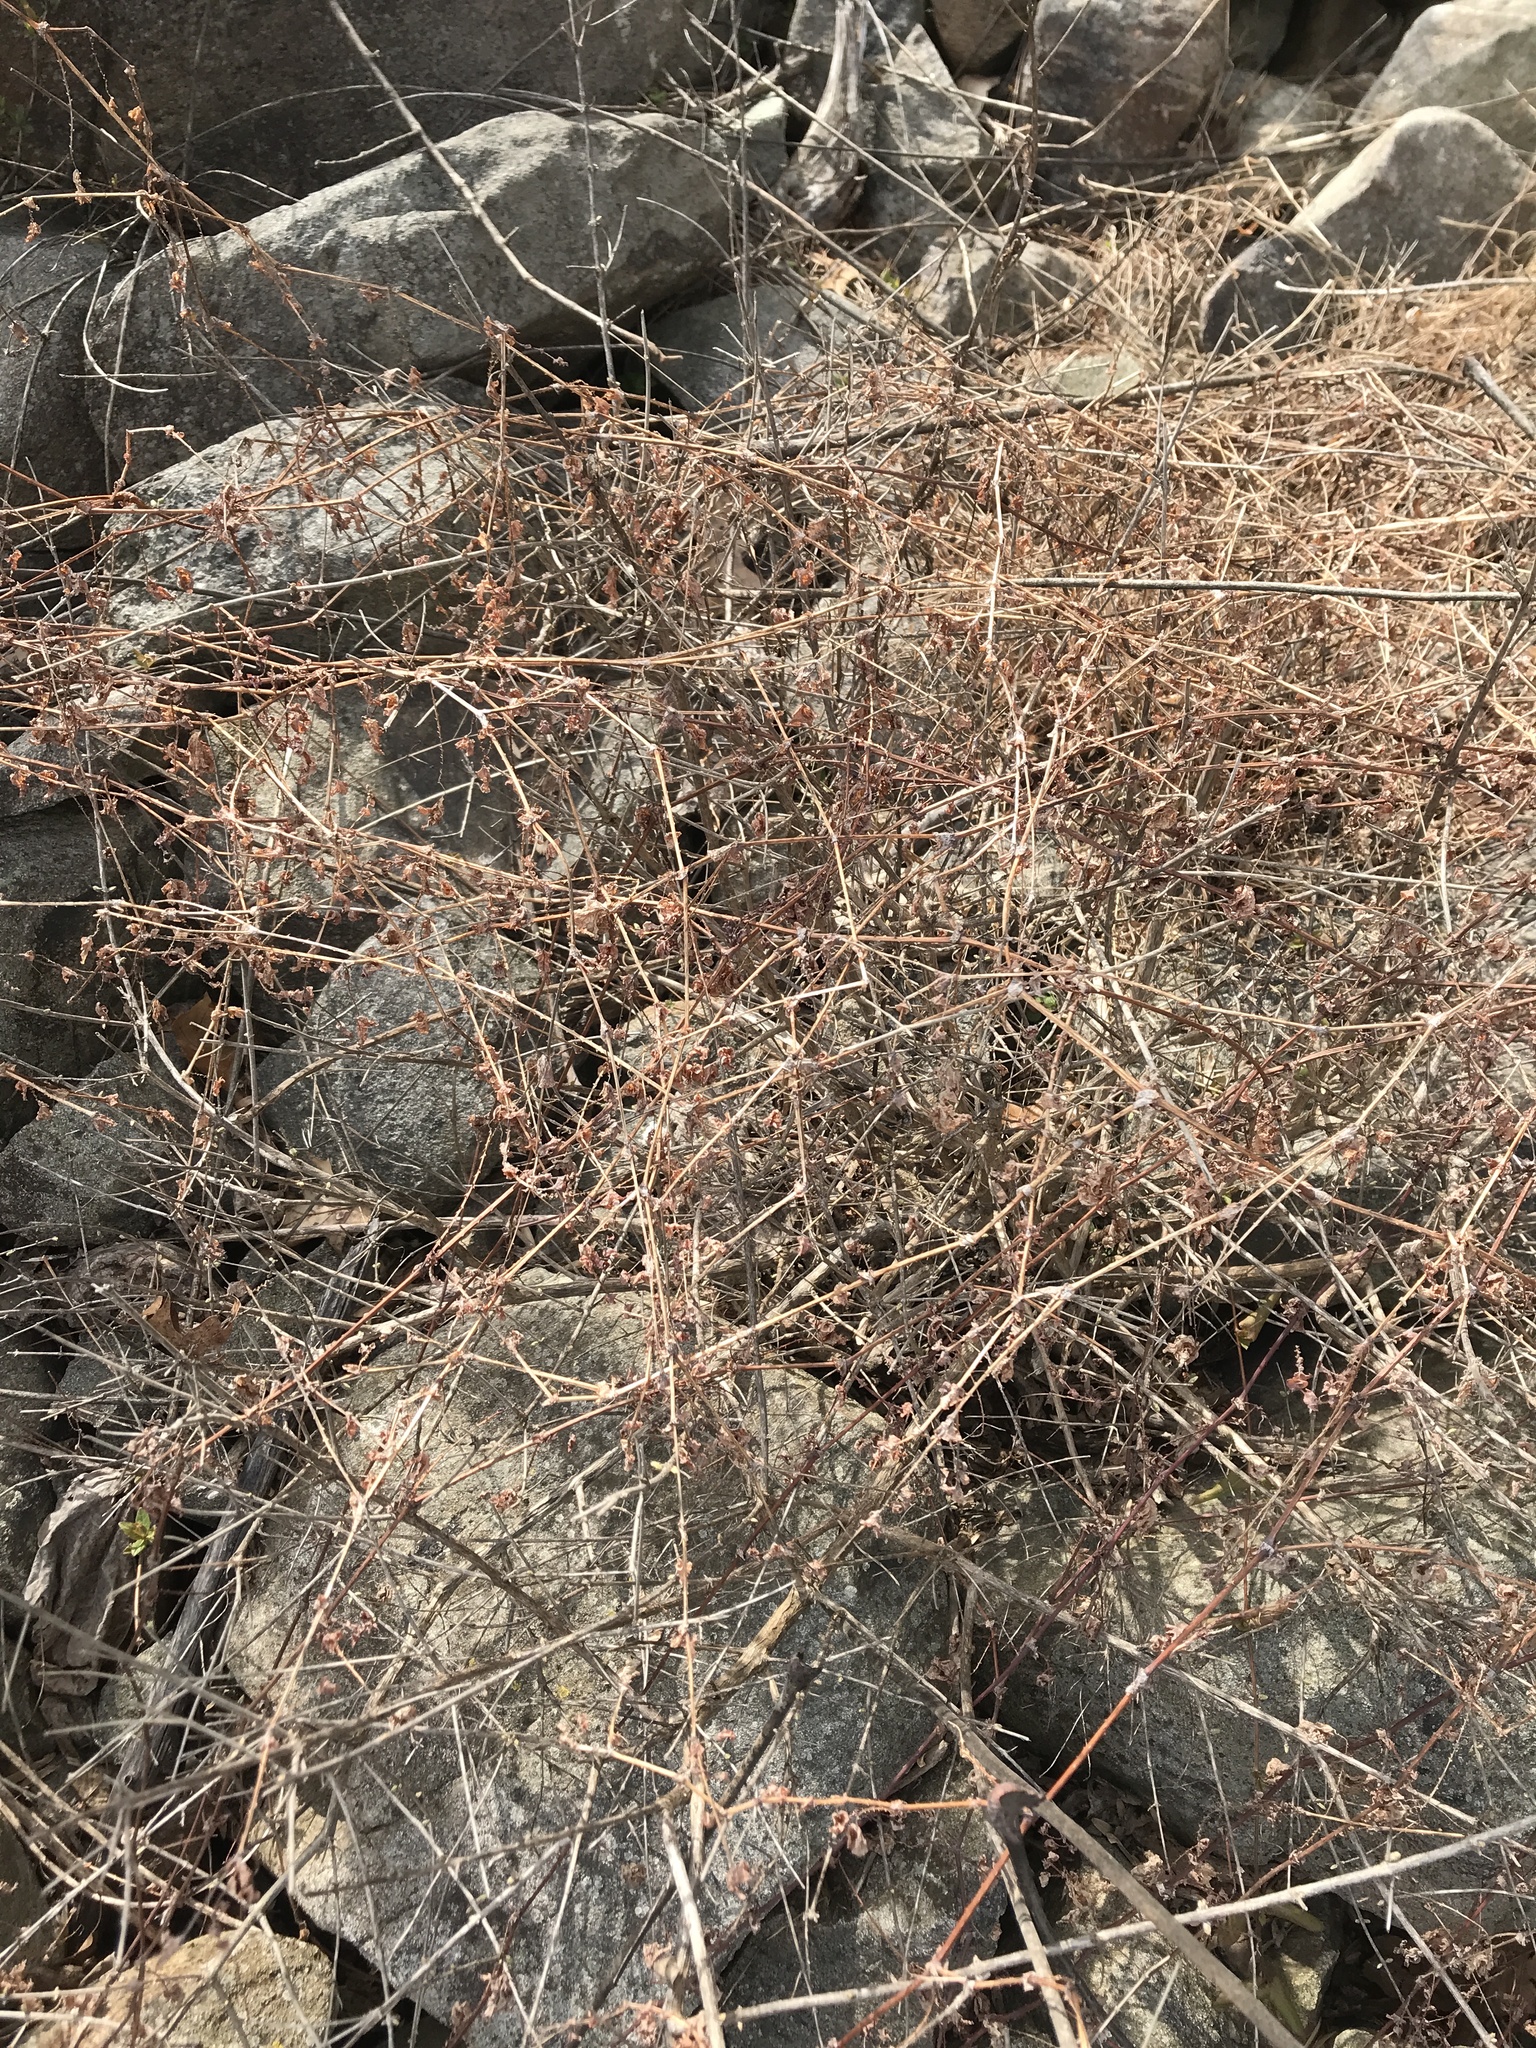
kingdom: Plantae
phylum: Tracheophyta
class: Magnoliopsida
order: Caryophyllales
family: Polygonaceae
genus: Persicaria
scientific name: Persicaria perfoliata
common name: Asiatic tearthumb
